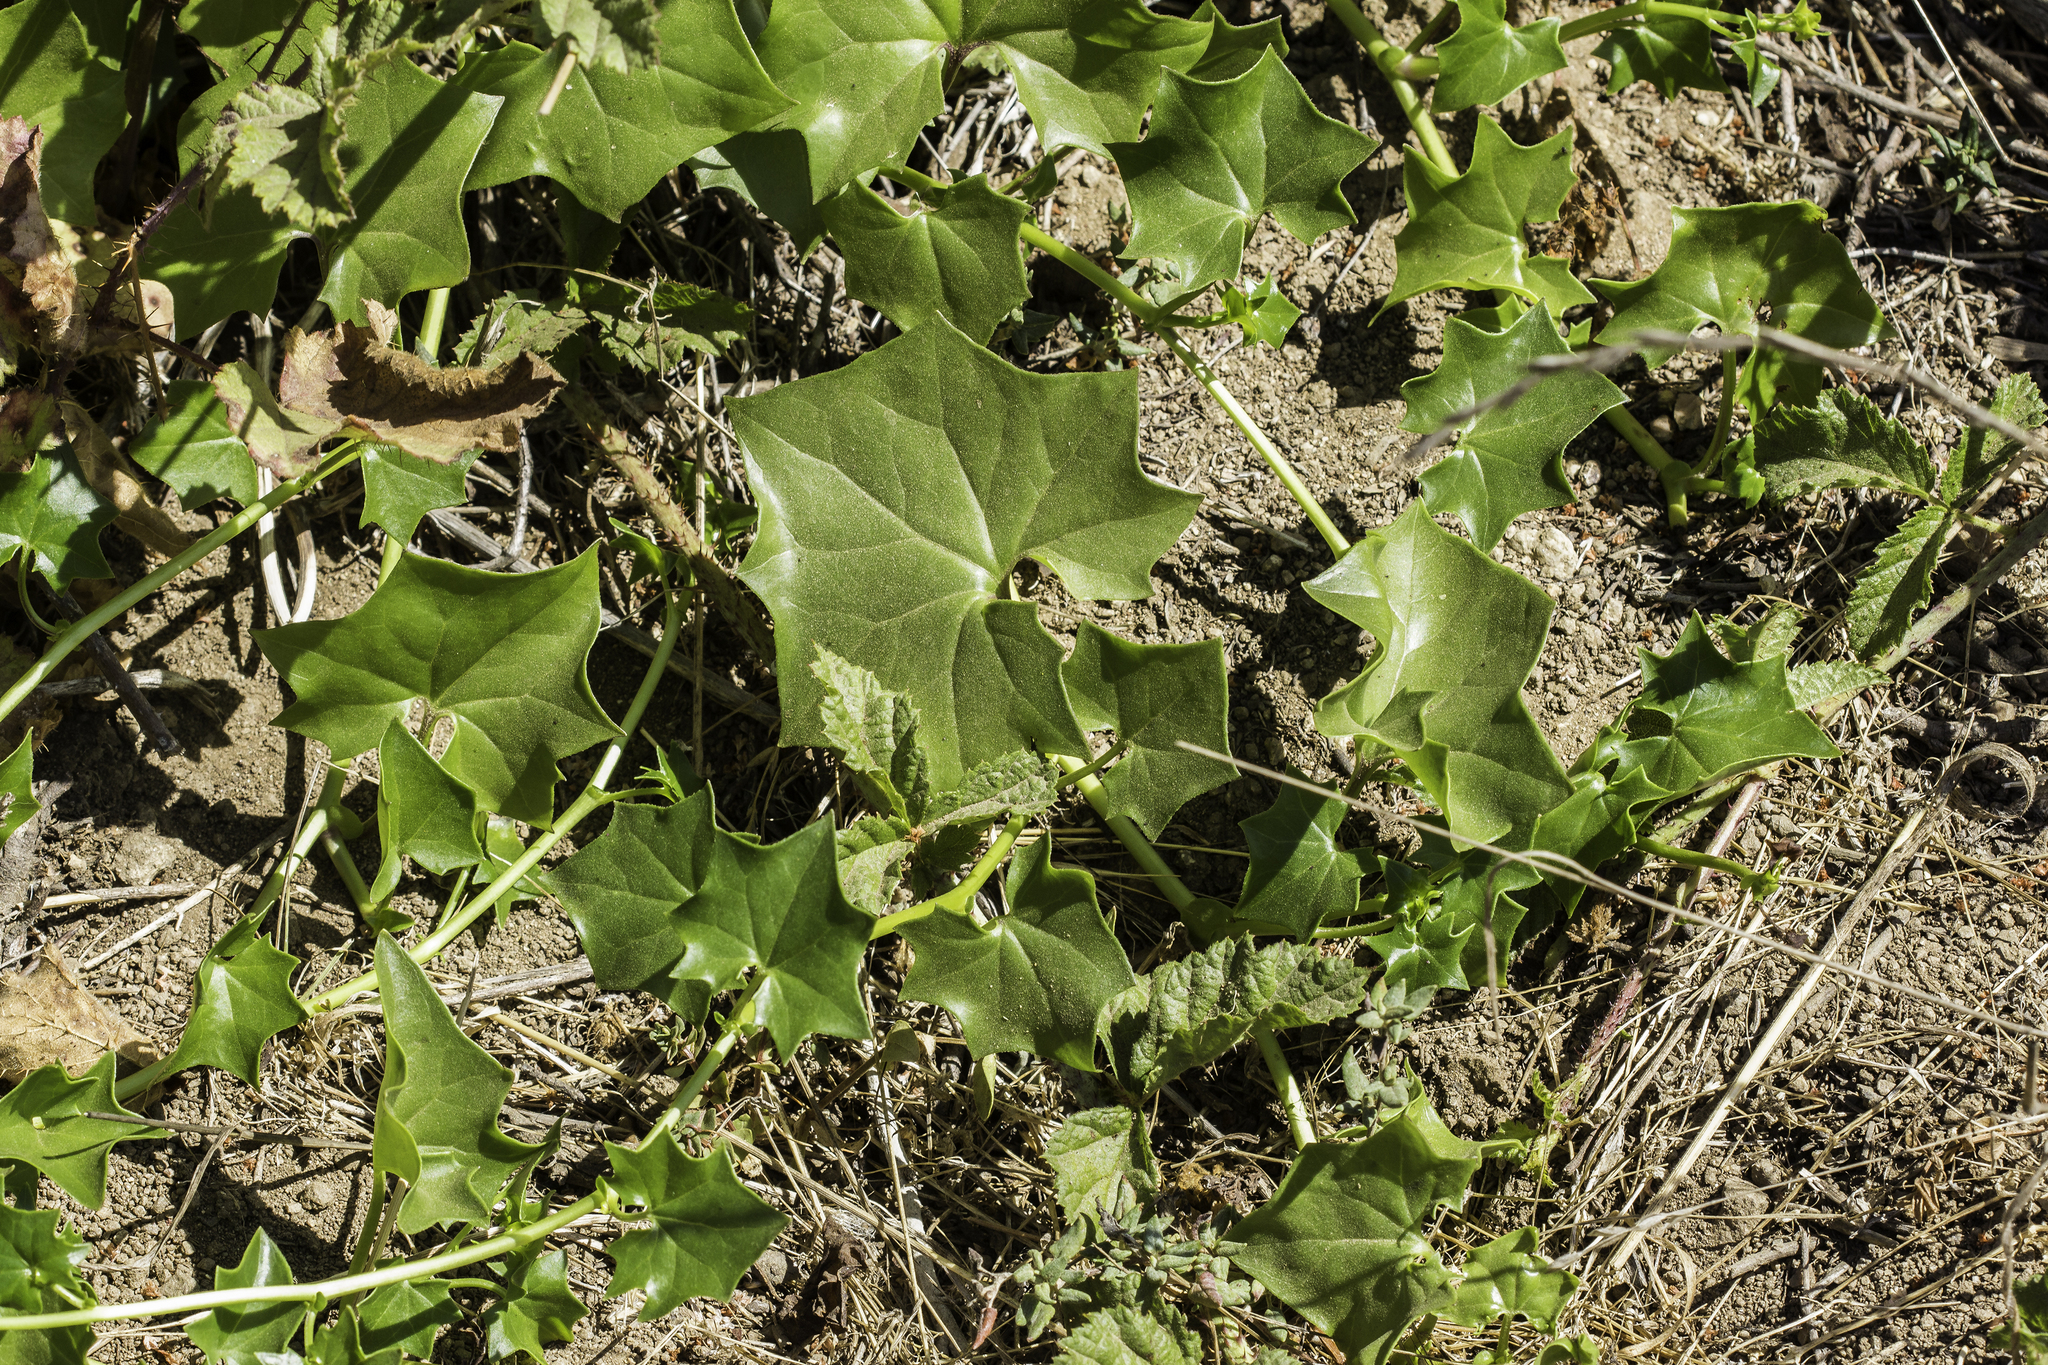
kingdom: Plantae
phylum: Tracheophyta
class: Magnoliopsida
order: Asterales
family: Asteraceae
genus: Delairea
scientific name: Delairea odorata
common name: Cape-ivy
